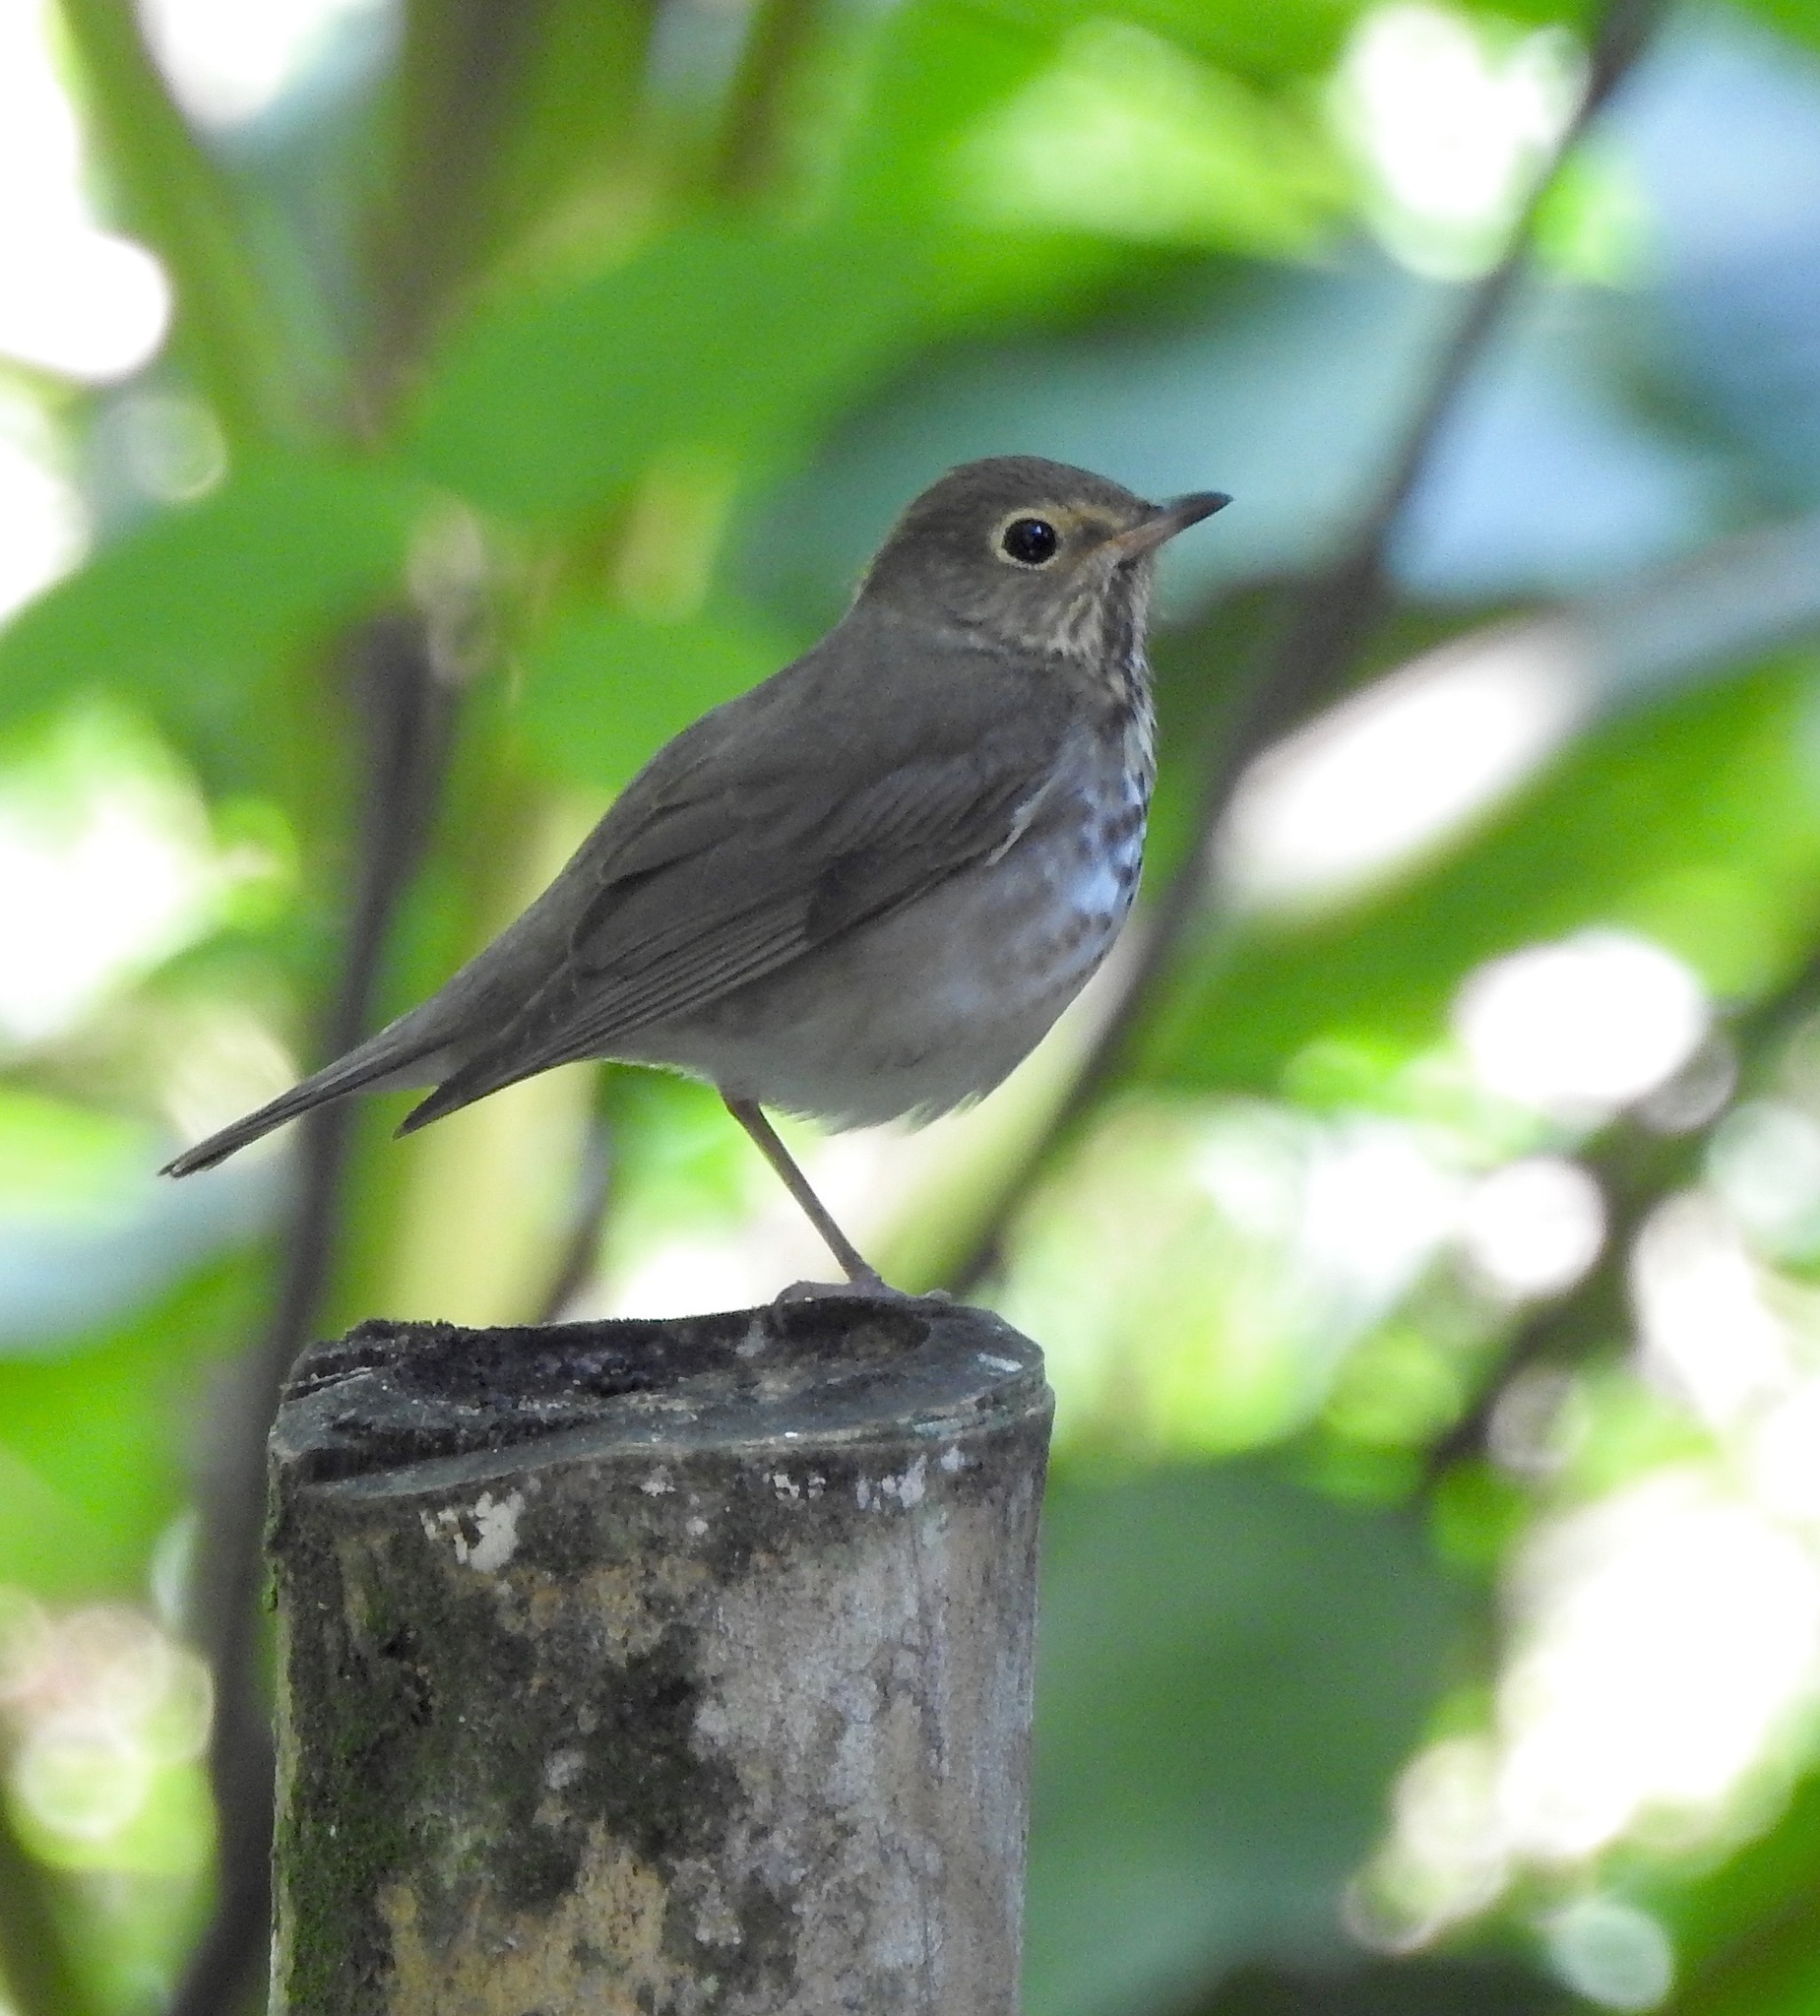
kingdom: Animalia
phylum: Chordata
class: Aves
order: Passeriformes
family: Turdidae
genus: Catharus
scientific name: Catharus ustulatus
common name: Swainson's thrush
